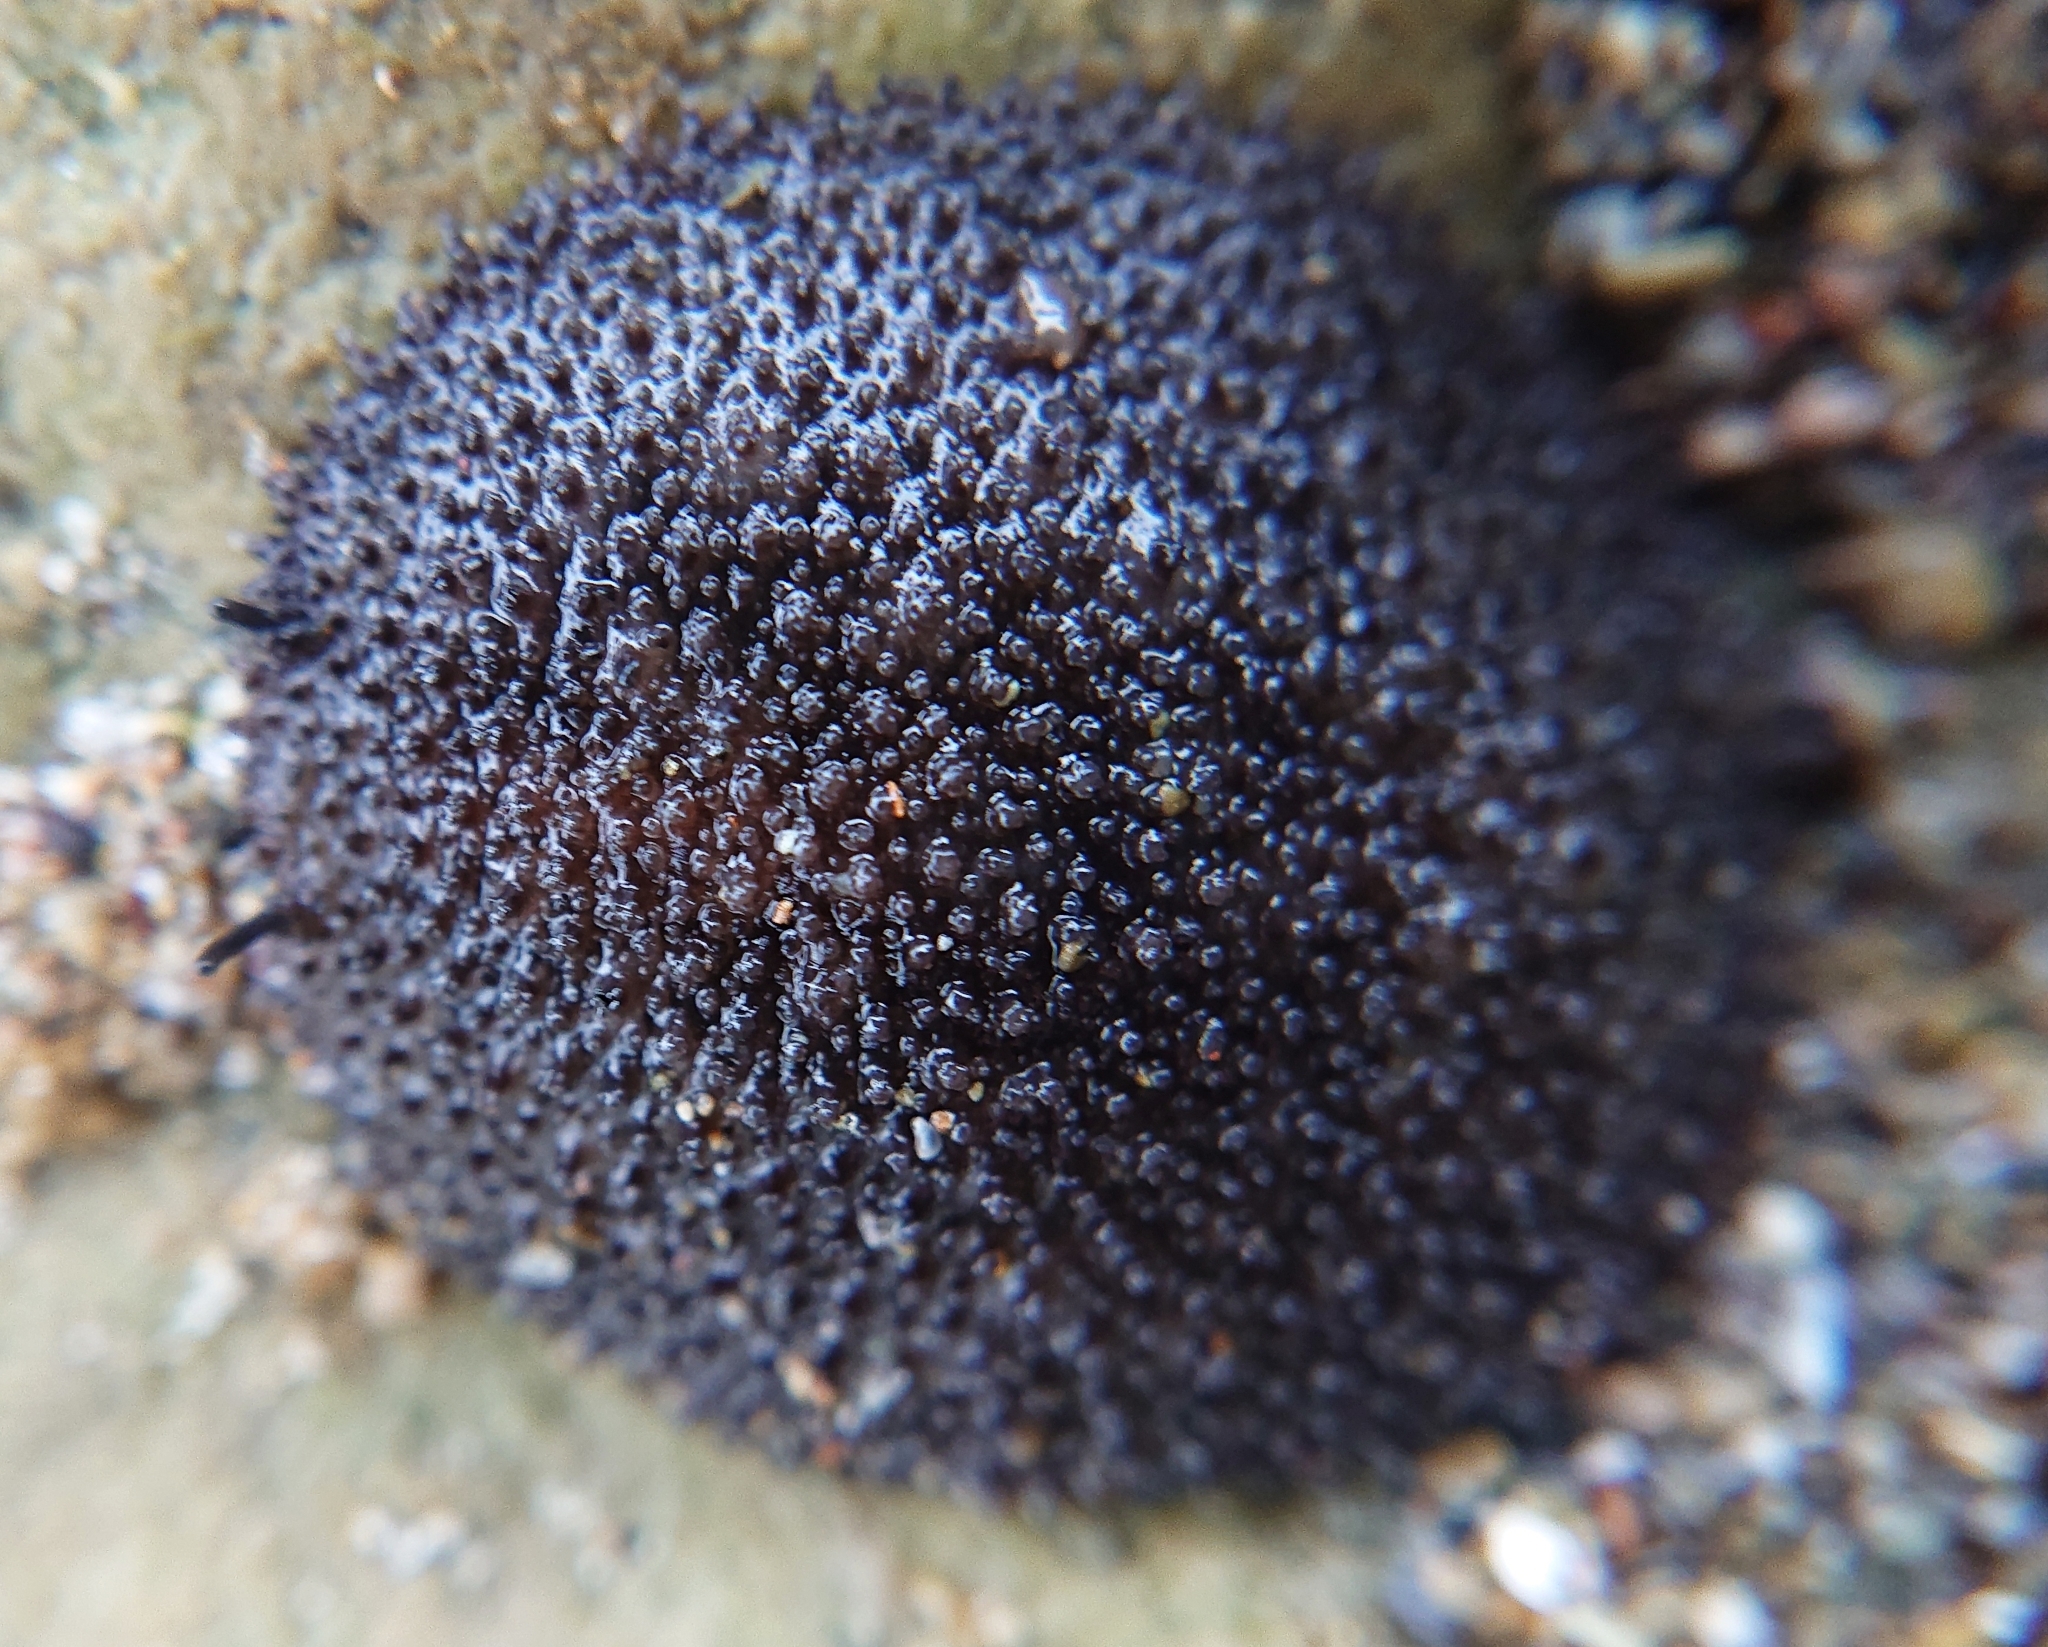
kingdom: Animalia
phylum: Mollusca
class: Gastropoda
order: Systellommatophora
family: Onchidiidae
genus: Onchidella
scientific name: Onchidella binneyi
